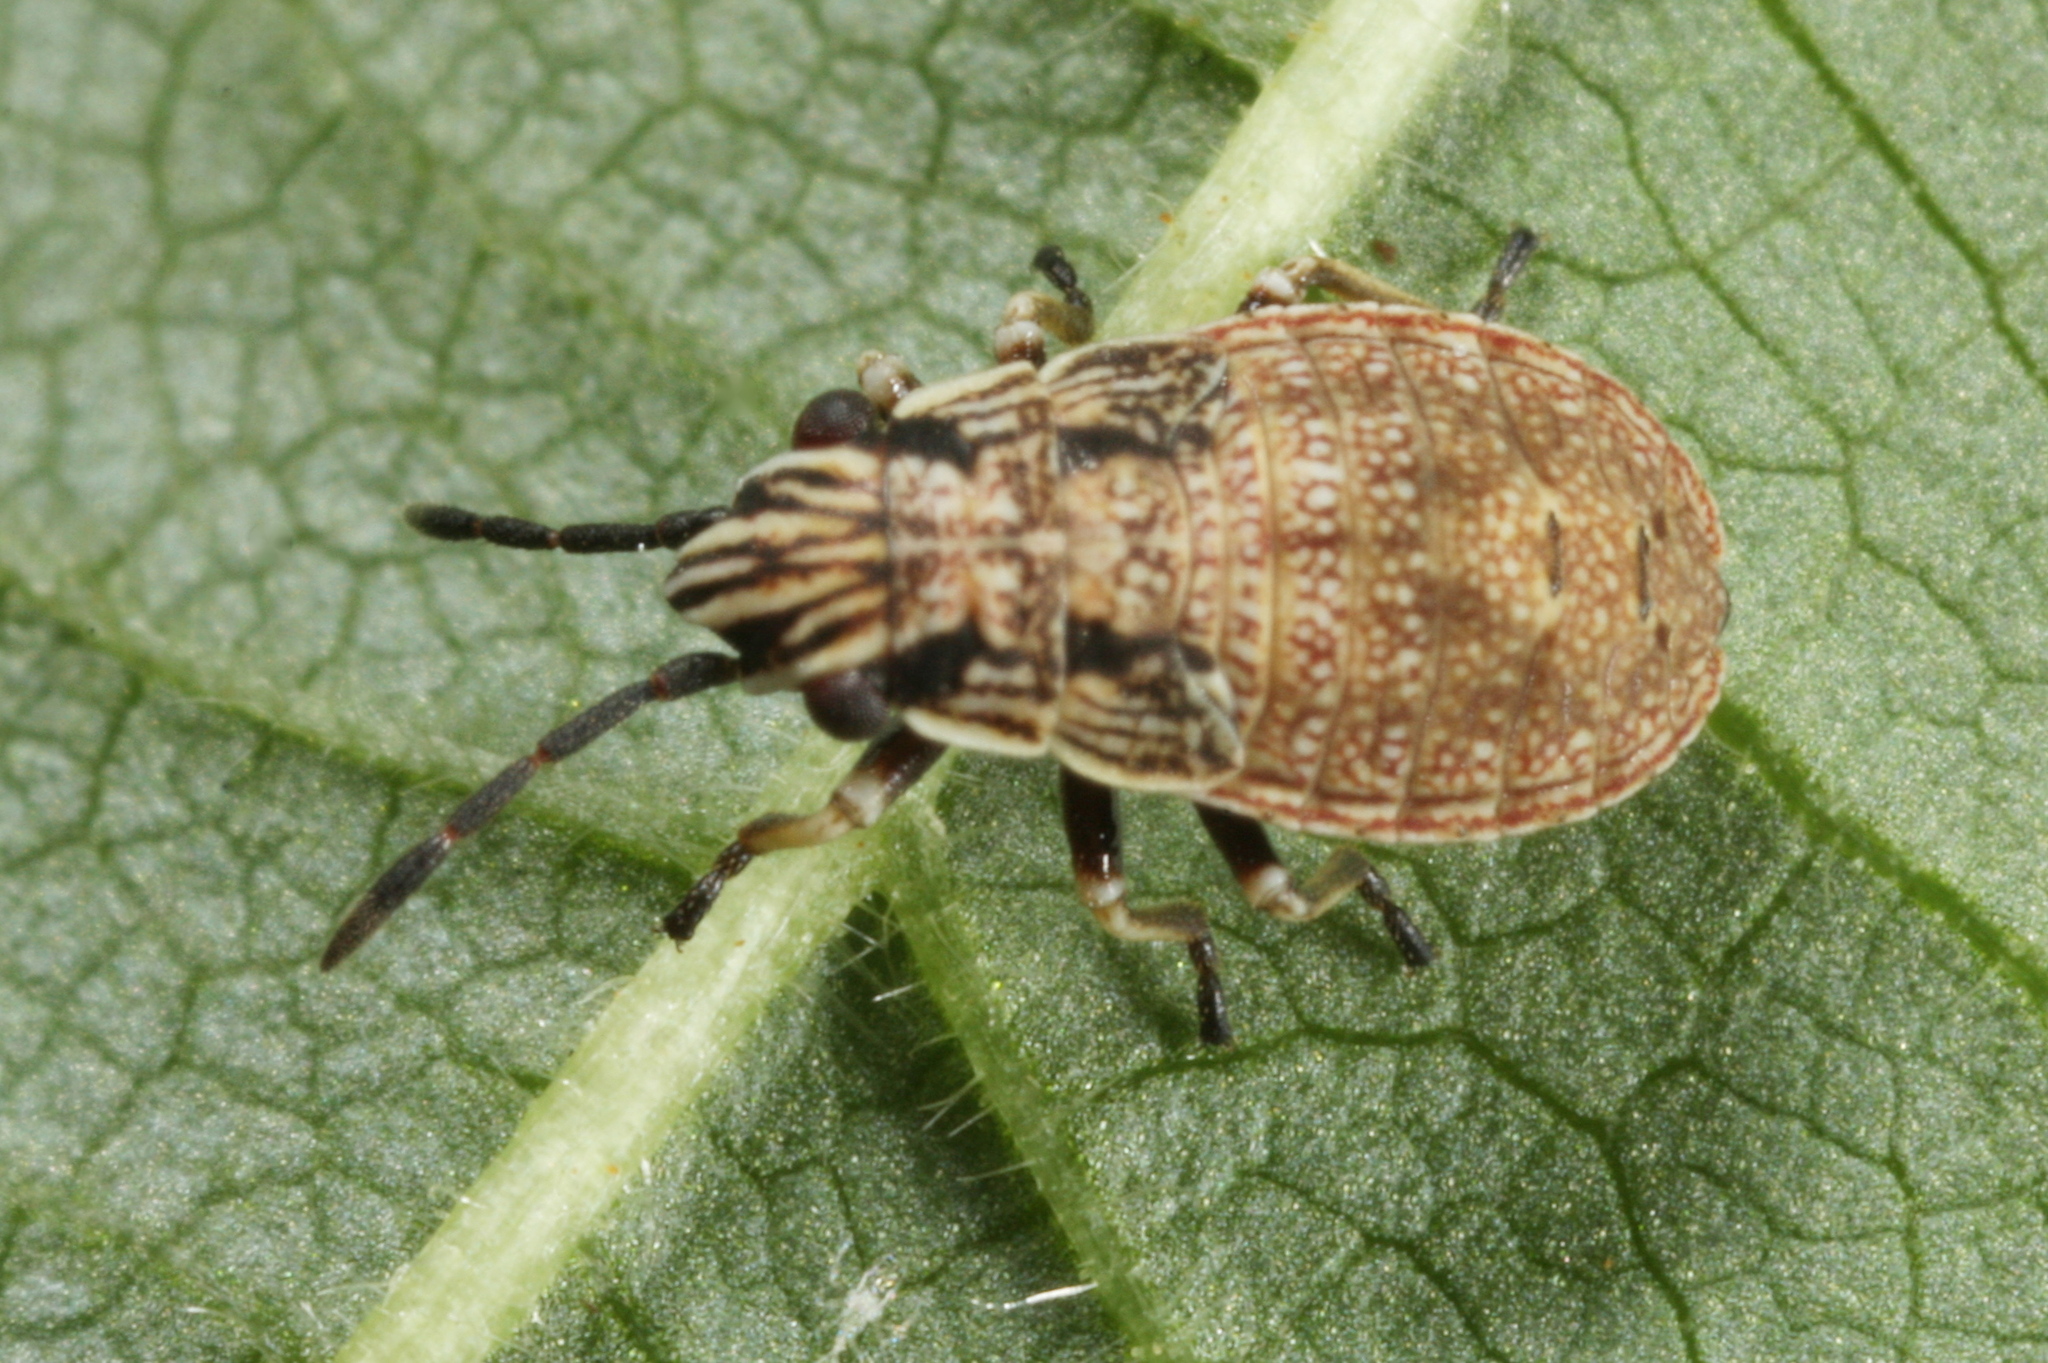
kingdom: Animalia
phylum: Arthropoda
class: Insecta
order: Hemiptera
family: Lygaeidae
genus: Nithecus
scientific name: Nithecus jacobaeae
